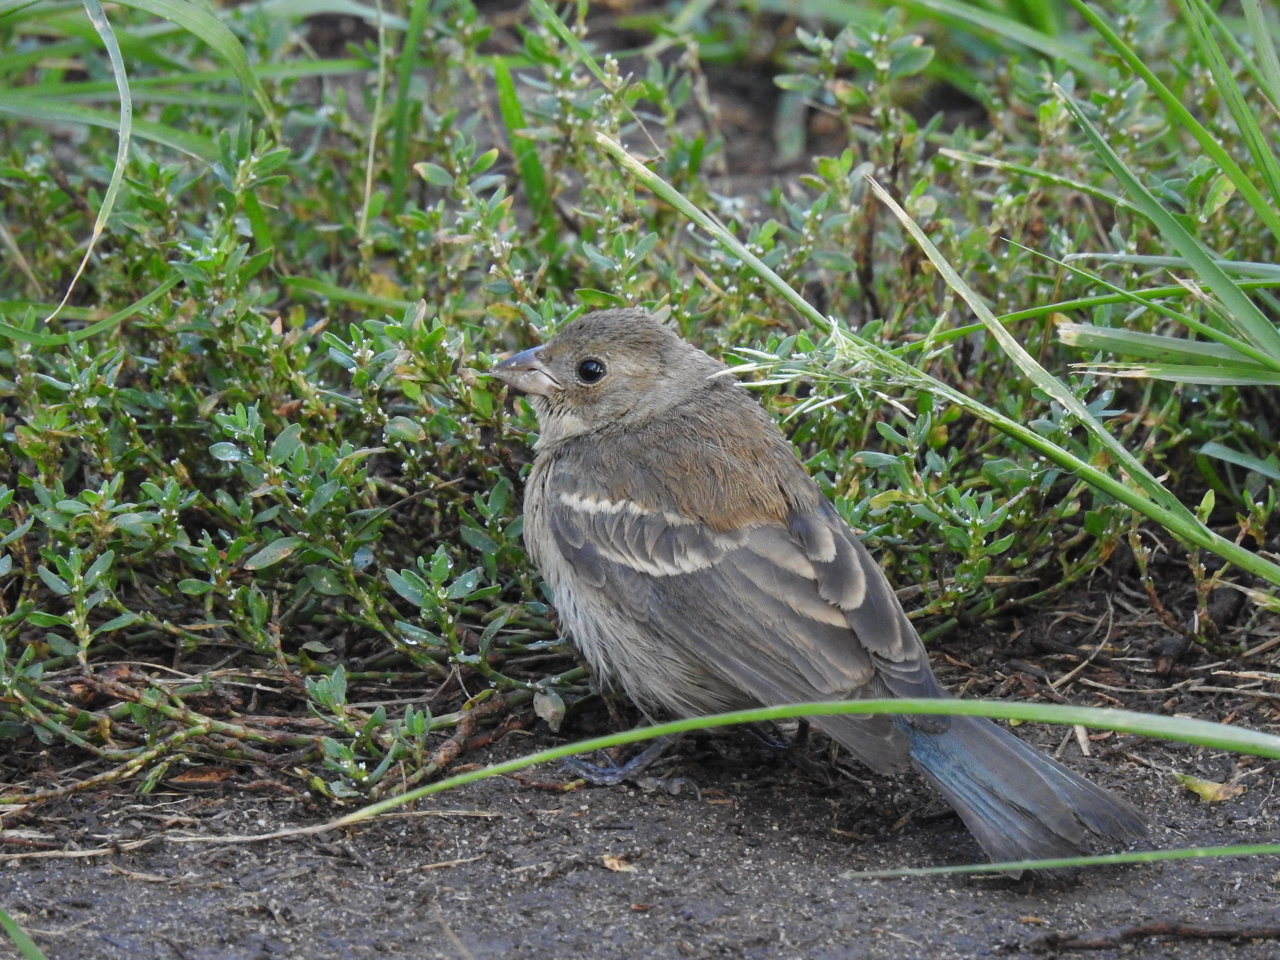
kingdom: Animalia
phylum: Chordata
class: Aves
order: Passeriformes
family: Cardinalidae
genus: Passerina
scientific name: Passerina amoena
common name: Lazuli bunting
